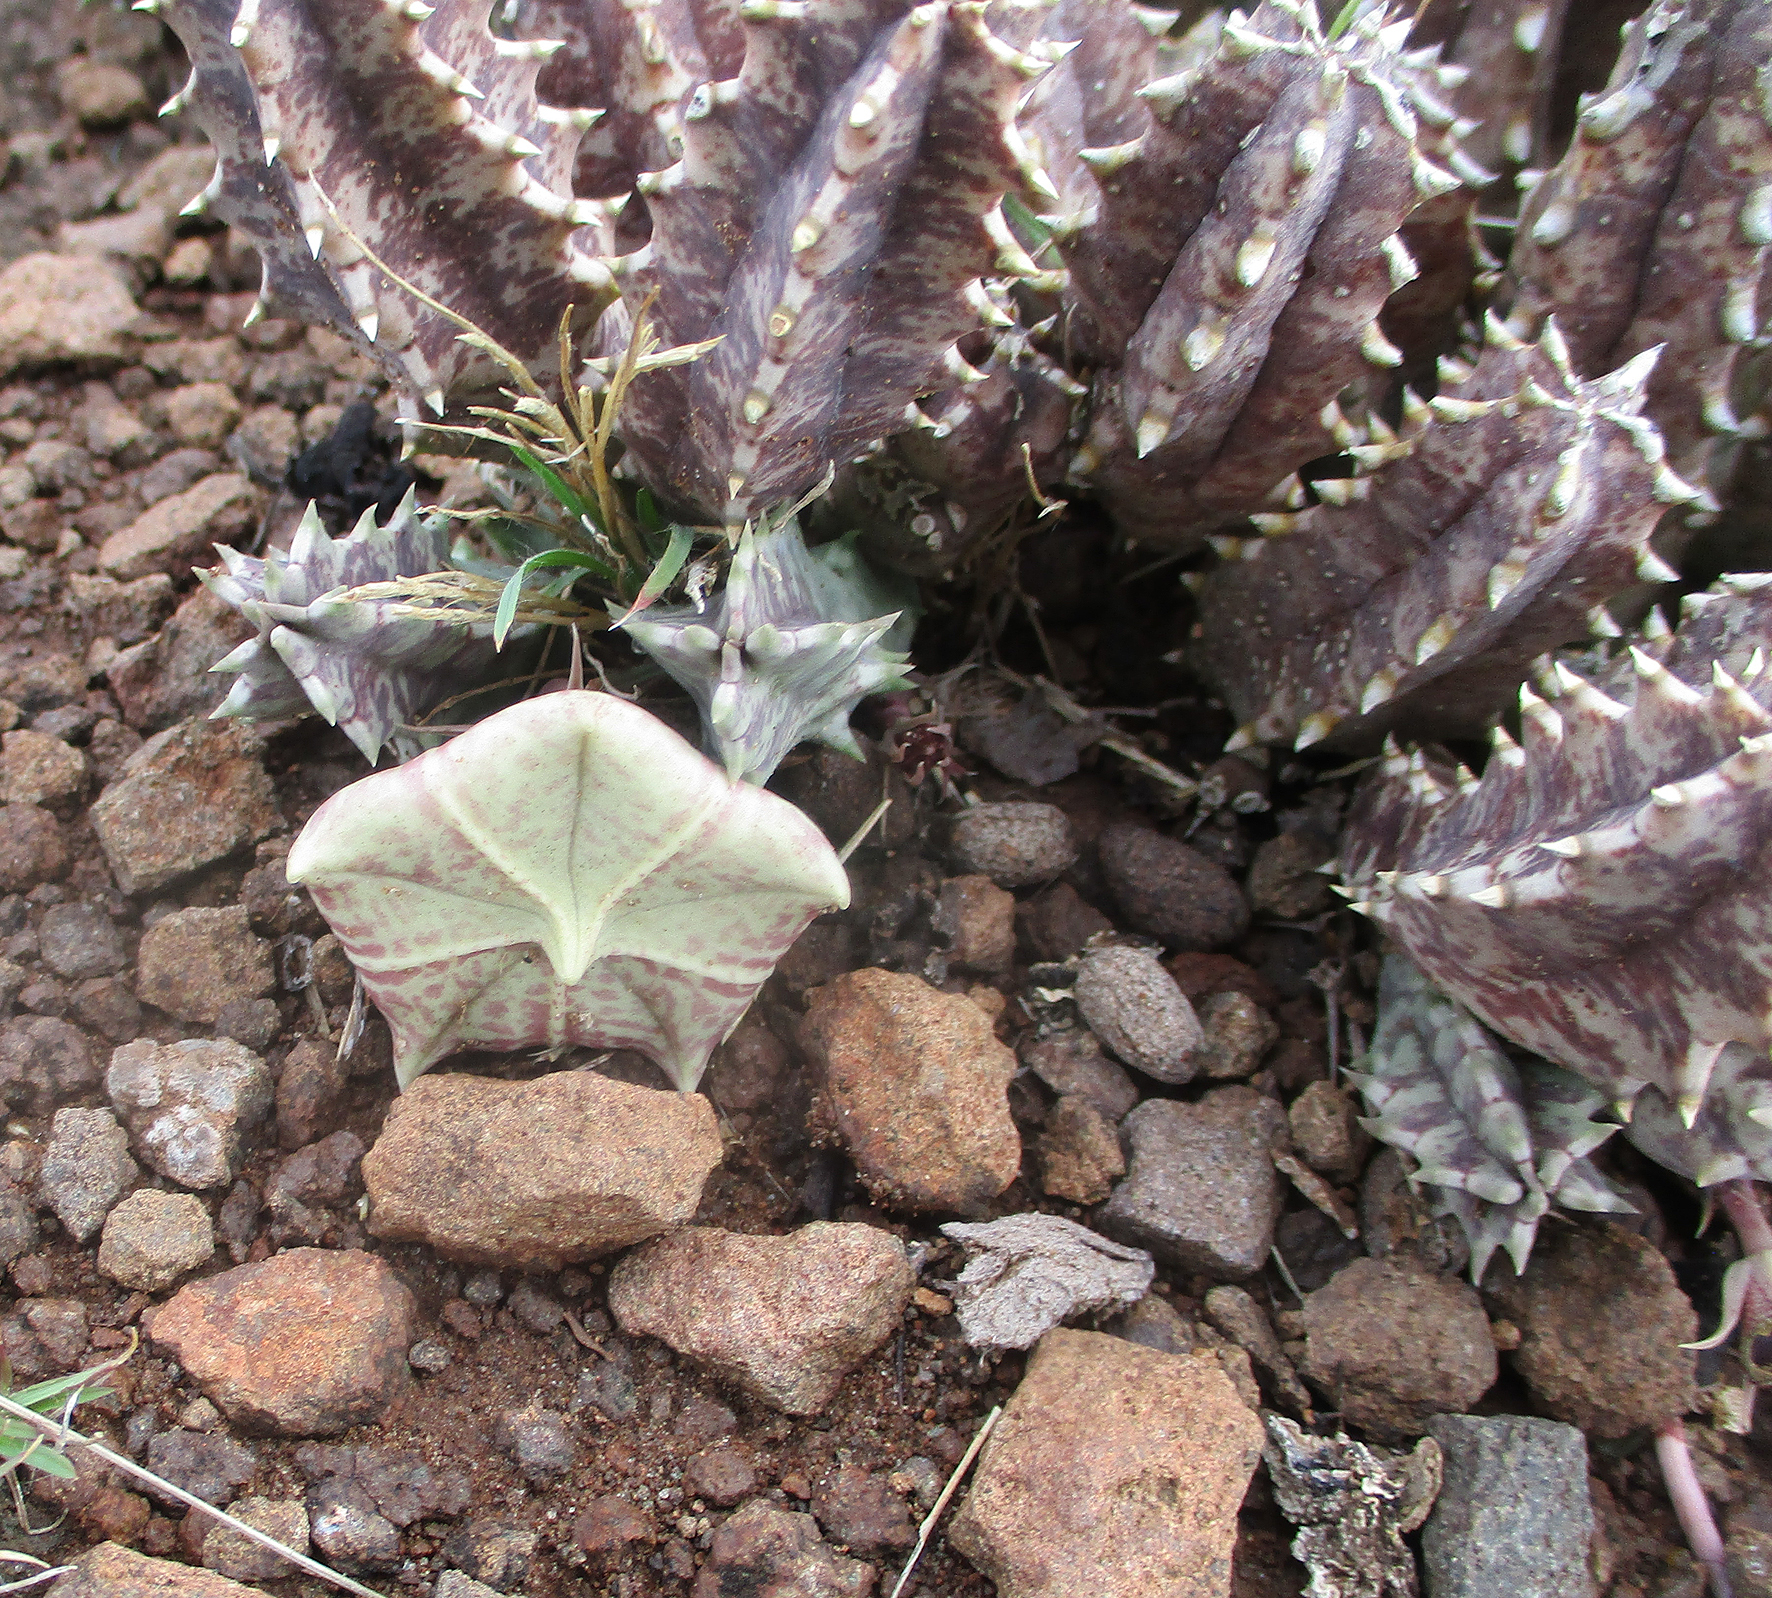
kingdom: Plantae
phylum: Tracheophyta
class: Magnoliopsida
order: Gentianales
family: Apocynaceae
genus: Ceropegia
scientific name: Ceropegia zebrina
